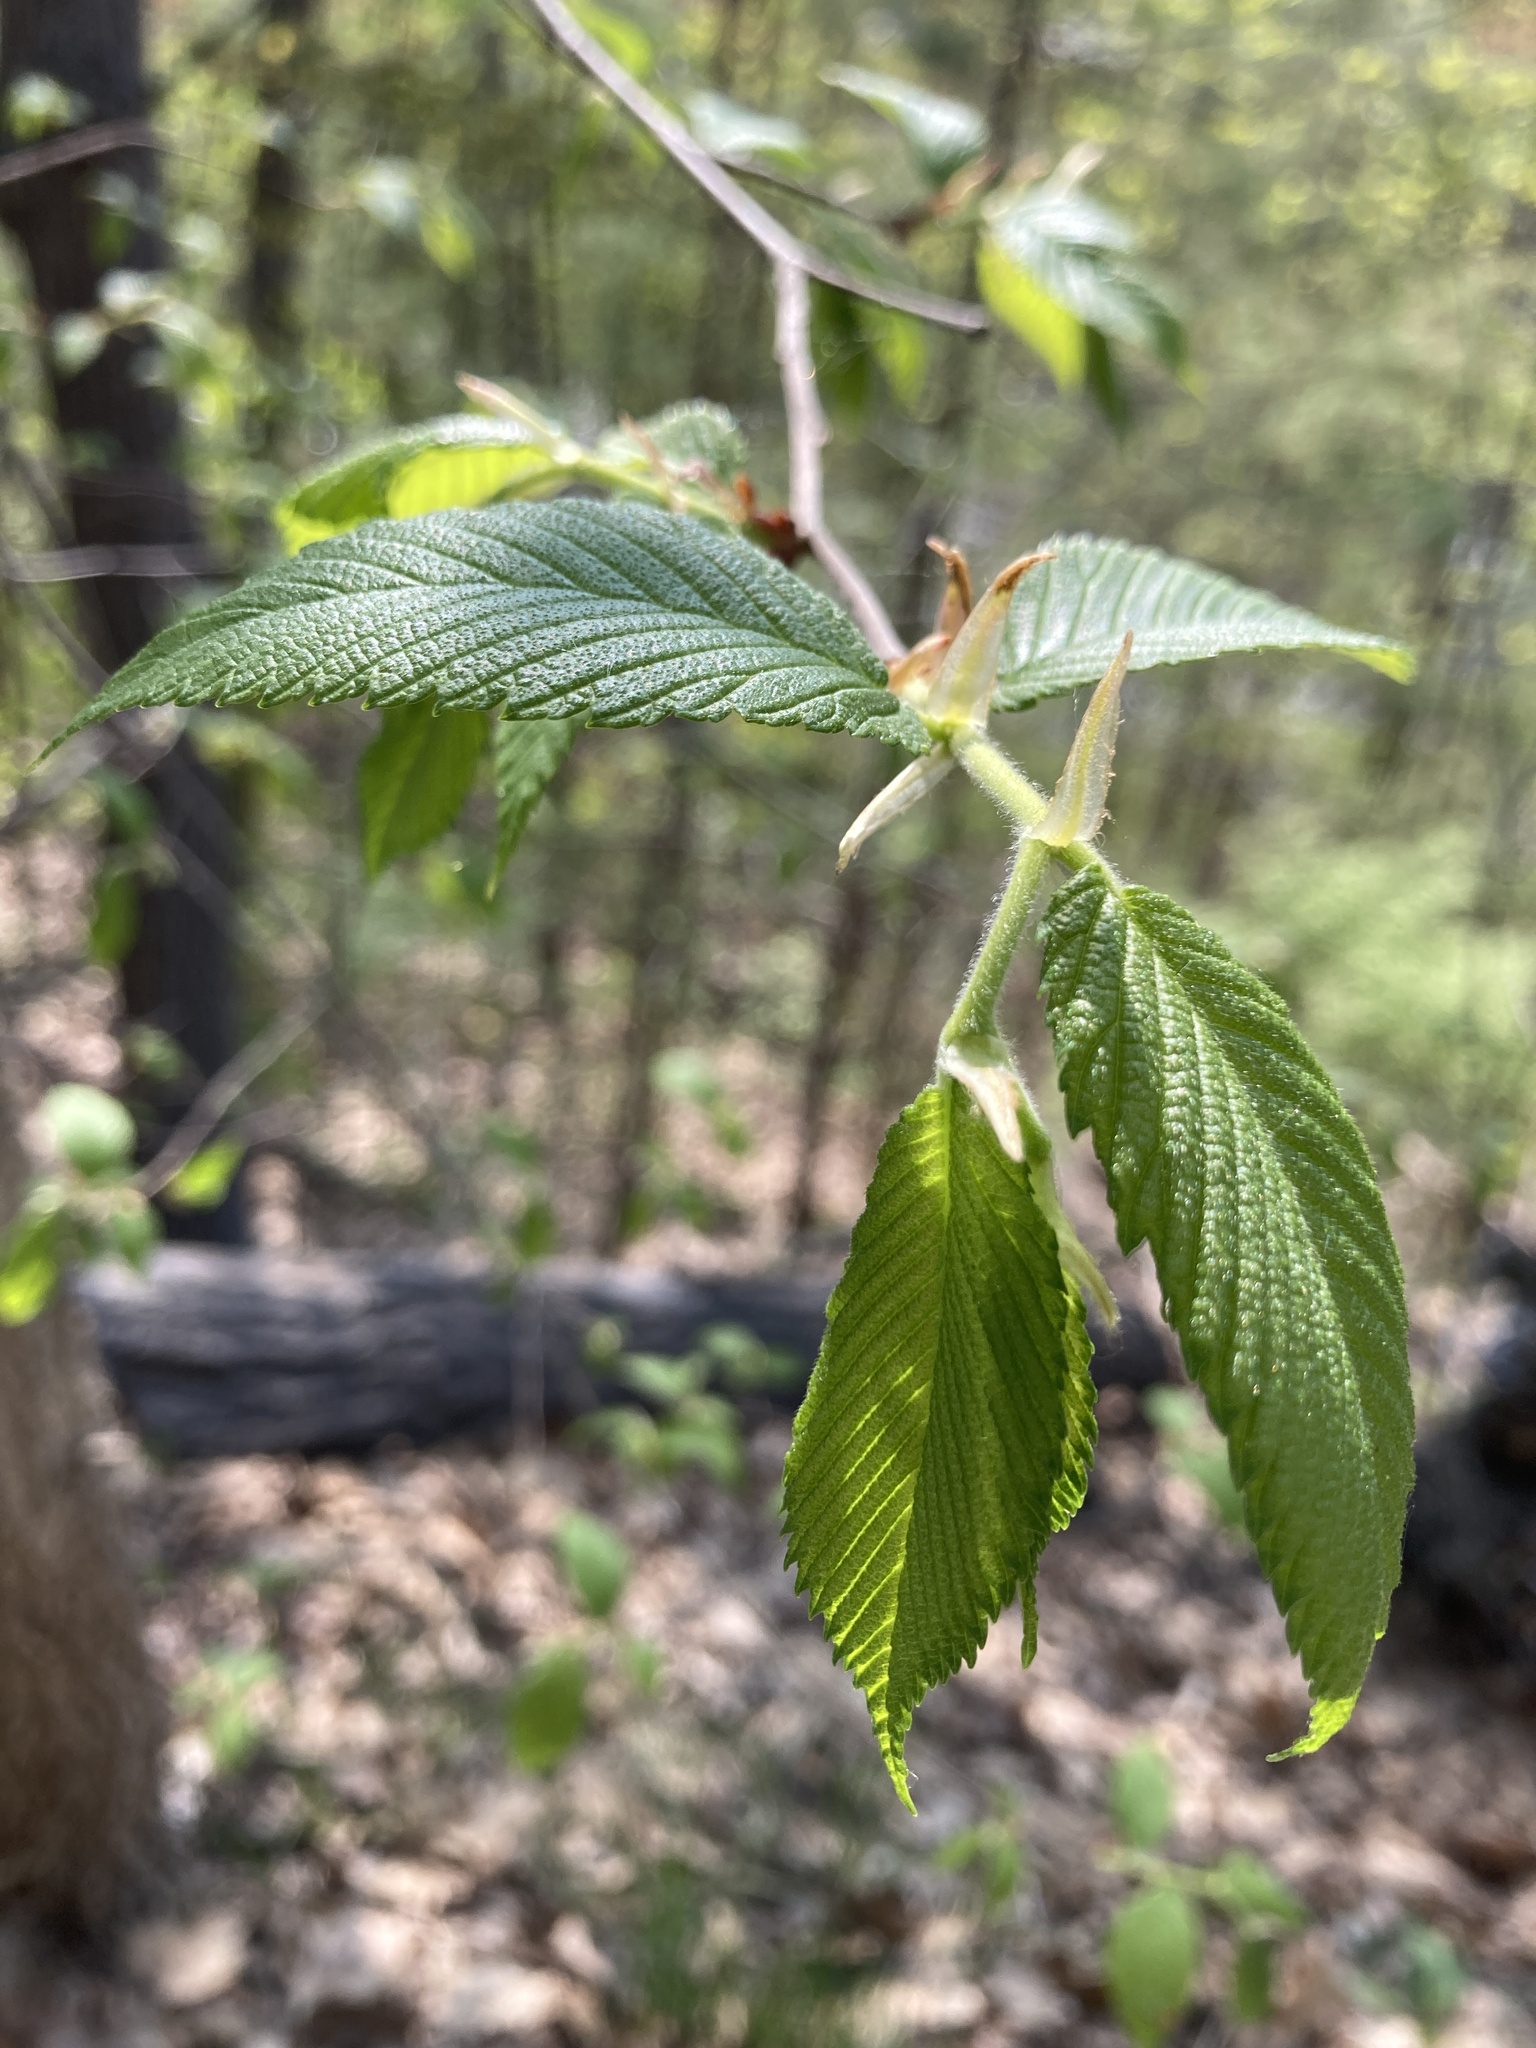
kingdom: Plantae
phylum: Tracheophyta
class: Magnoliopsida
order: Rosales
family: Ulmaceae
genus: Ulmus
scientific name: Ulmus americana
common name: American elm
